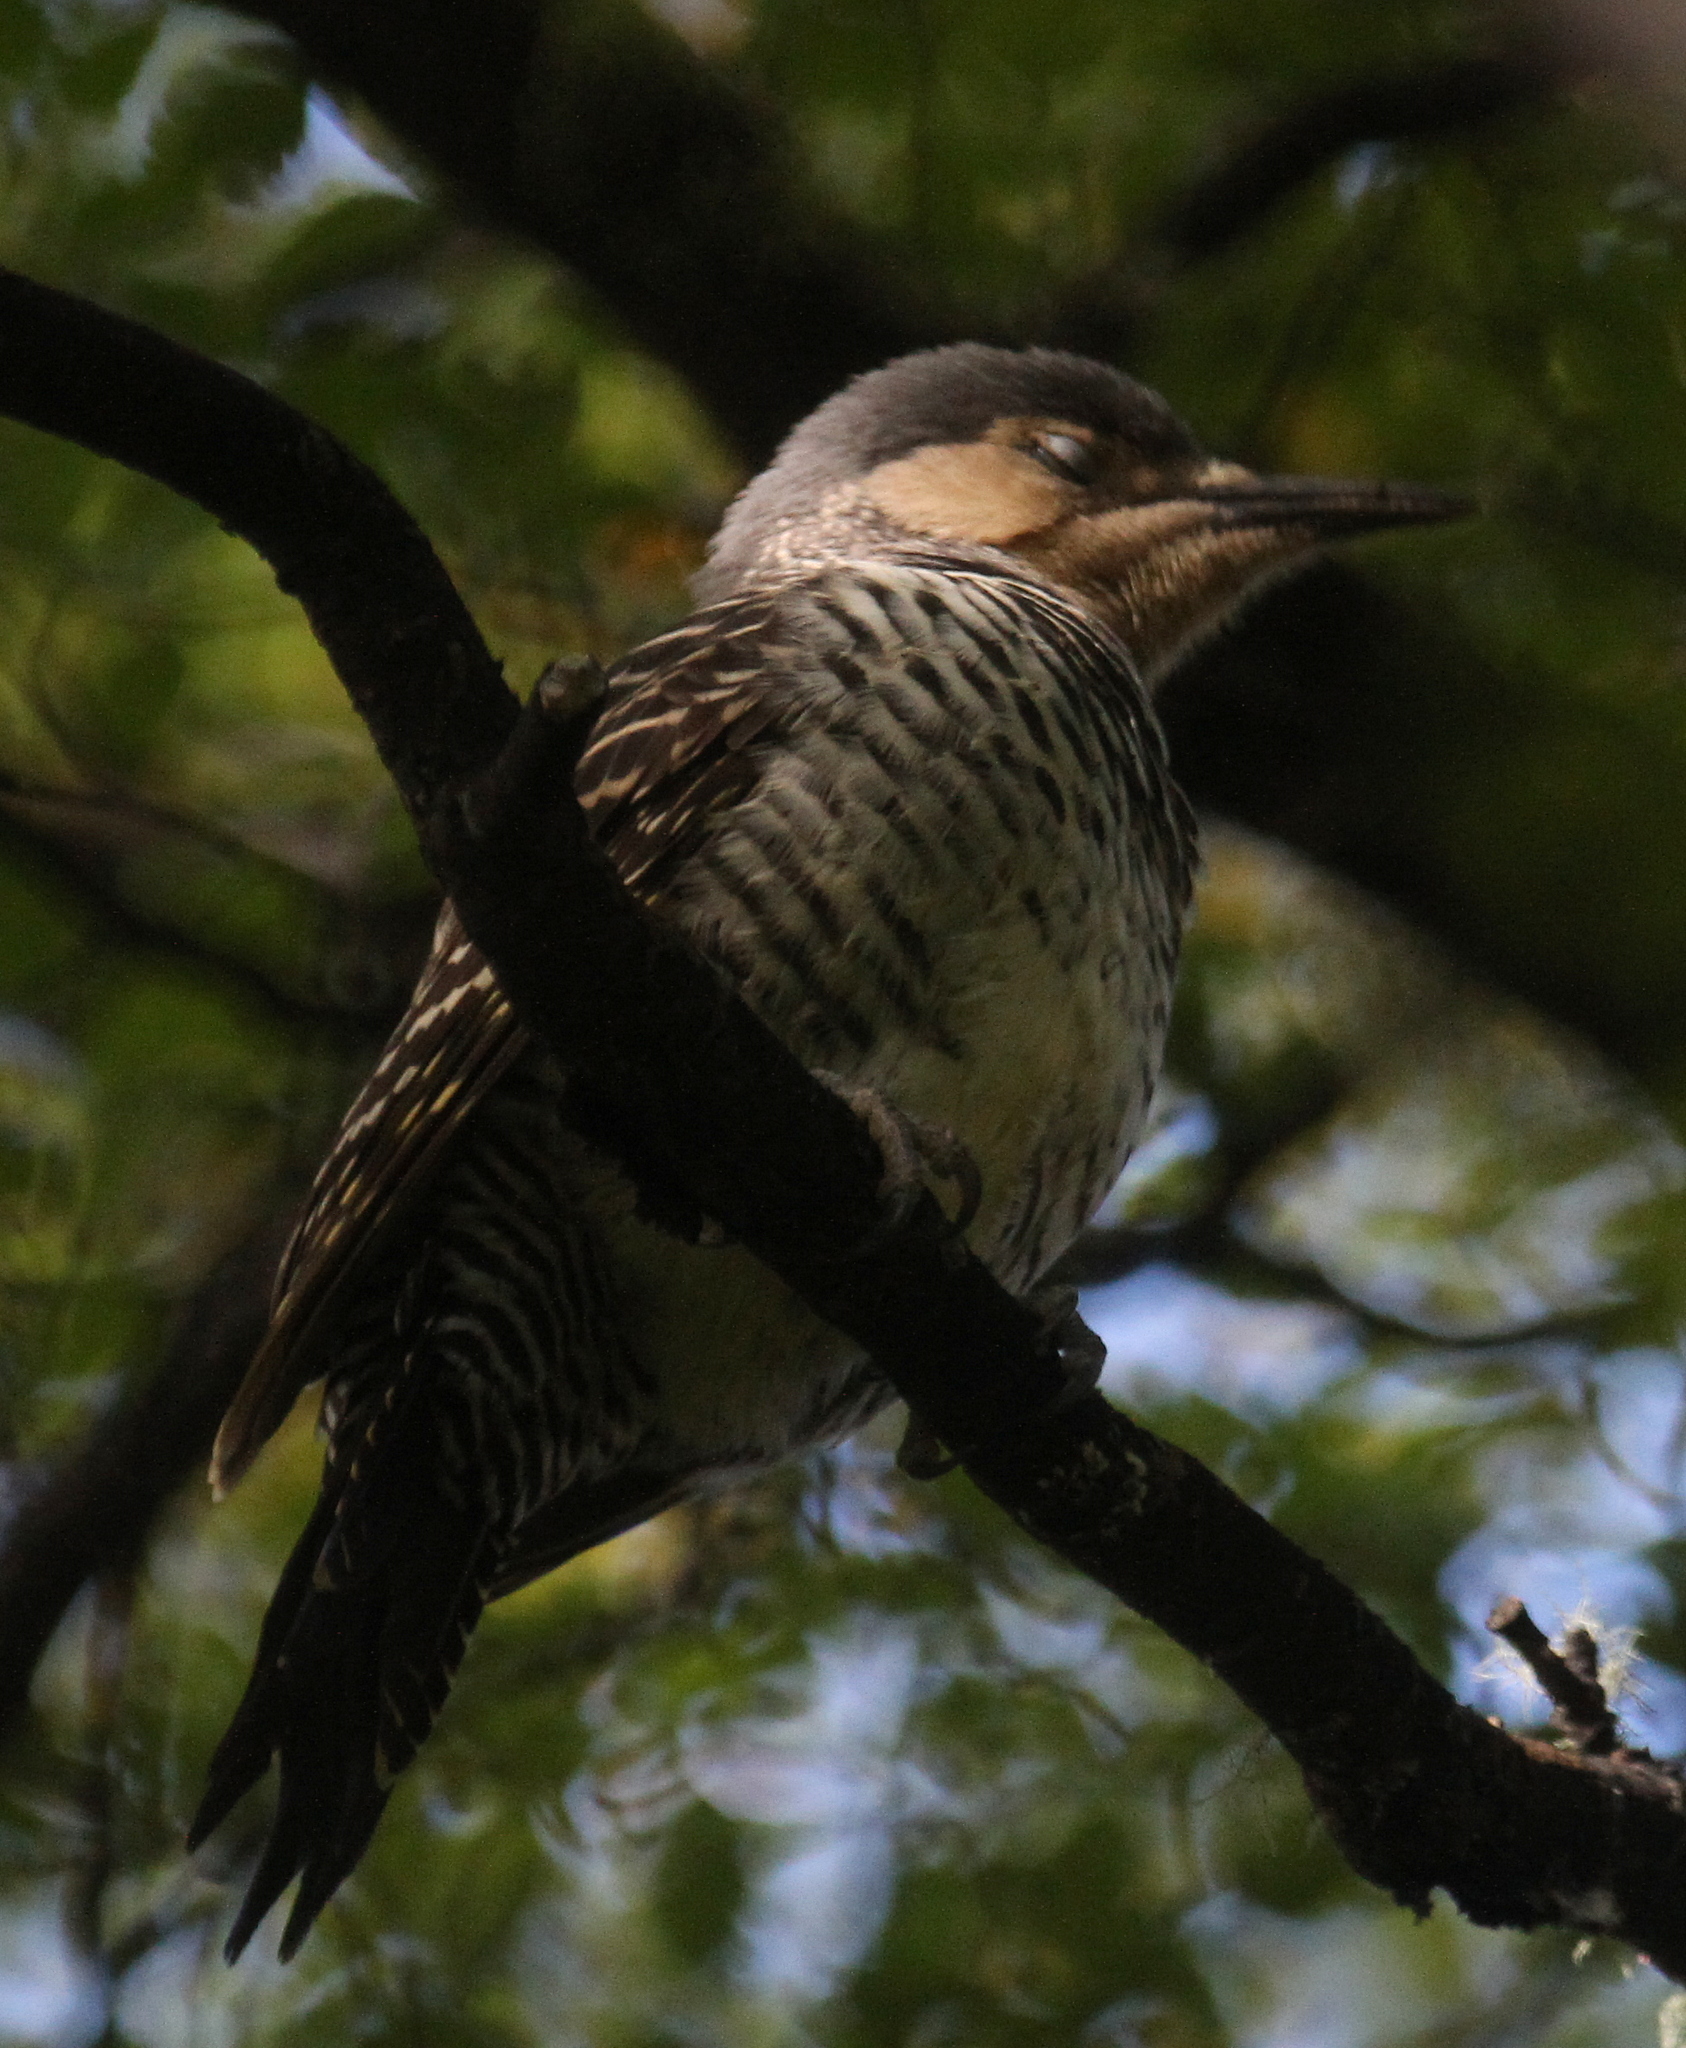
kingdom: Animalia
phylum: Chordata
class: Aves
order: Piciformes
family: Picidae
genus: Colaptes
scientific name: Colaptes pitius
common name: Chilean flicker
